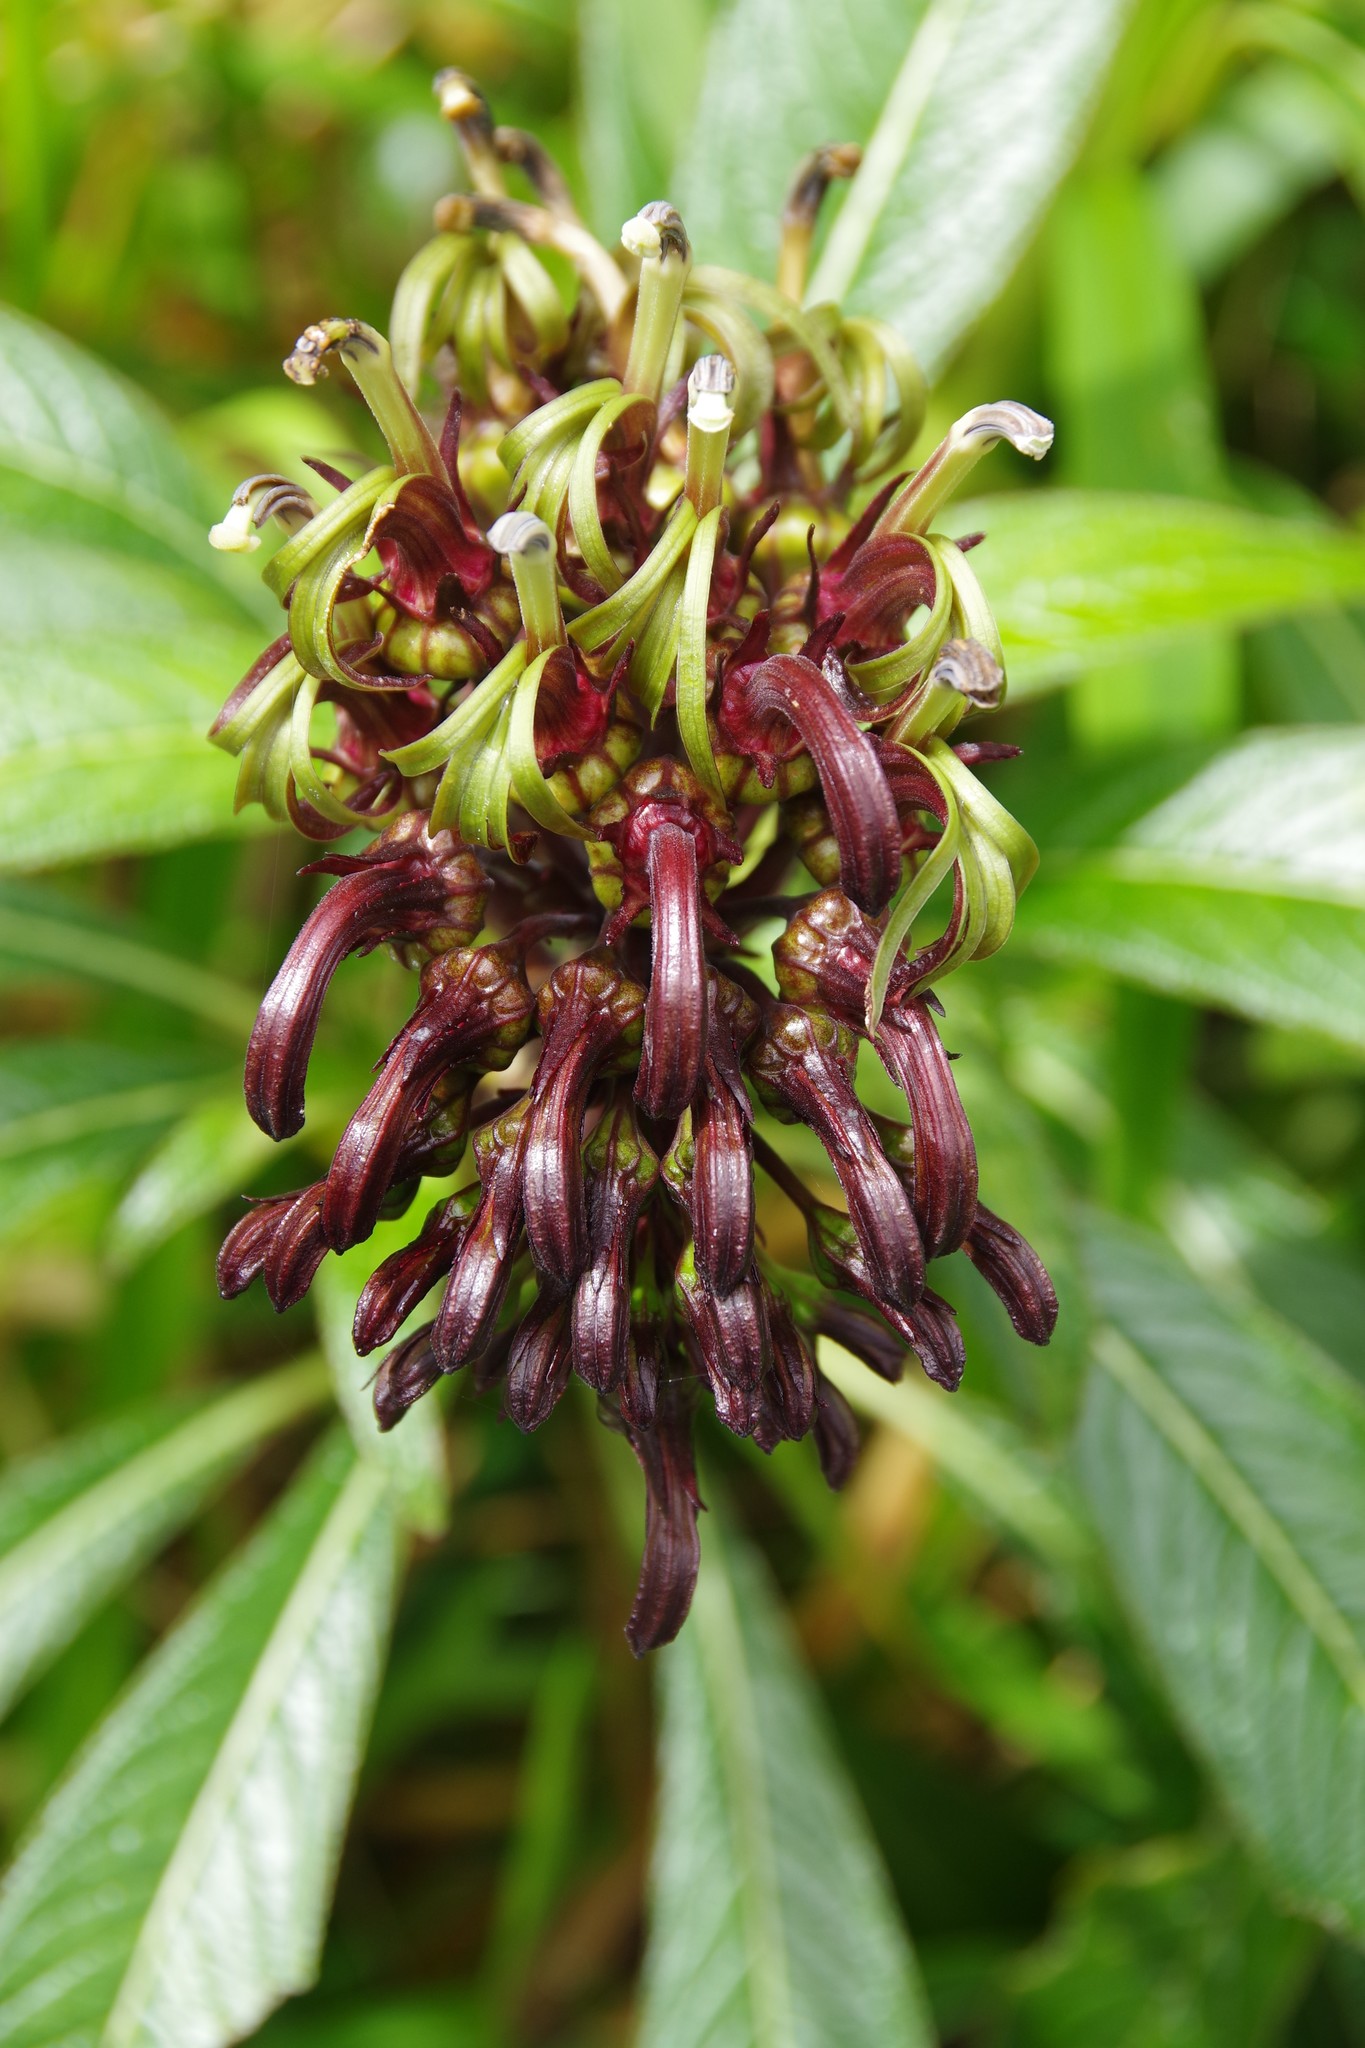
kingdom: Plantae
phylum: Tracheophyta
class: Magnoliopsida
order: Asterales
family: Campanulaceae
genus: Lobelia
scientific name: Lobelia portoricensis
